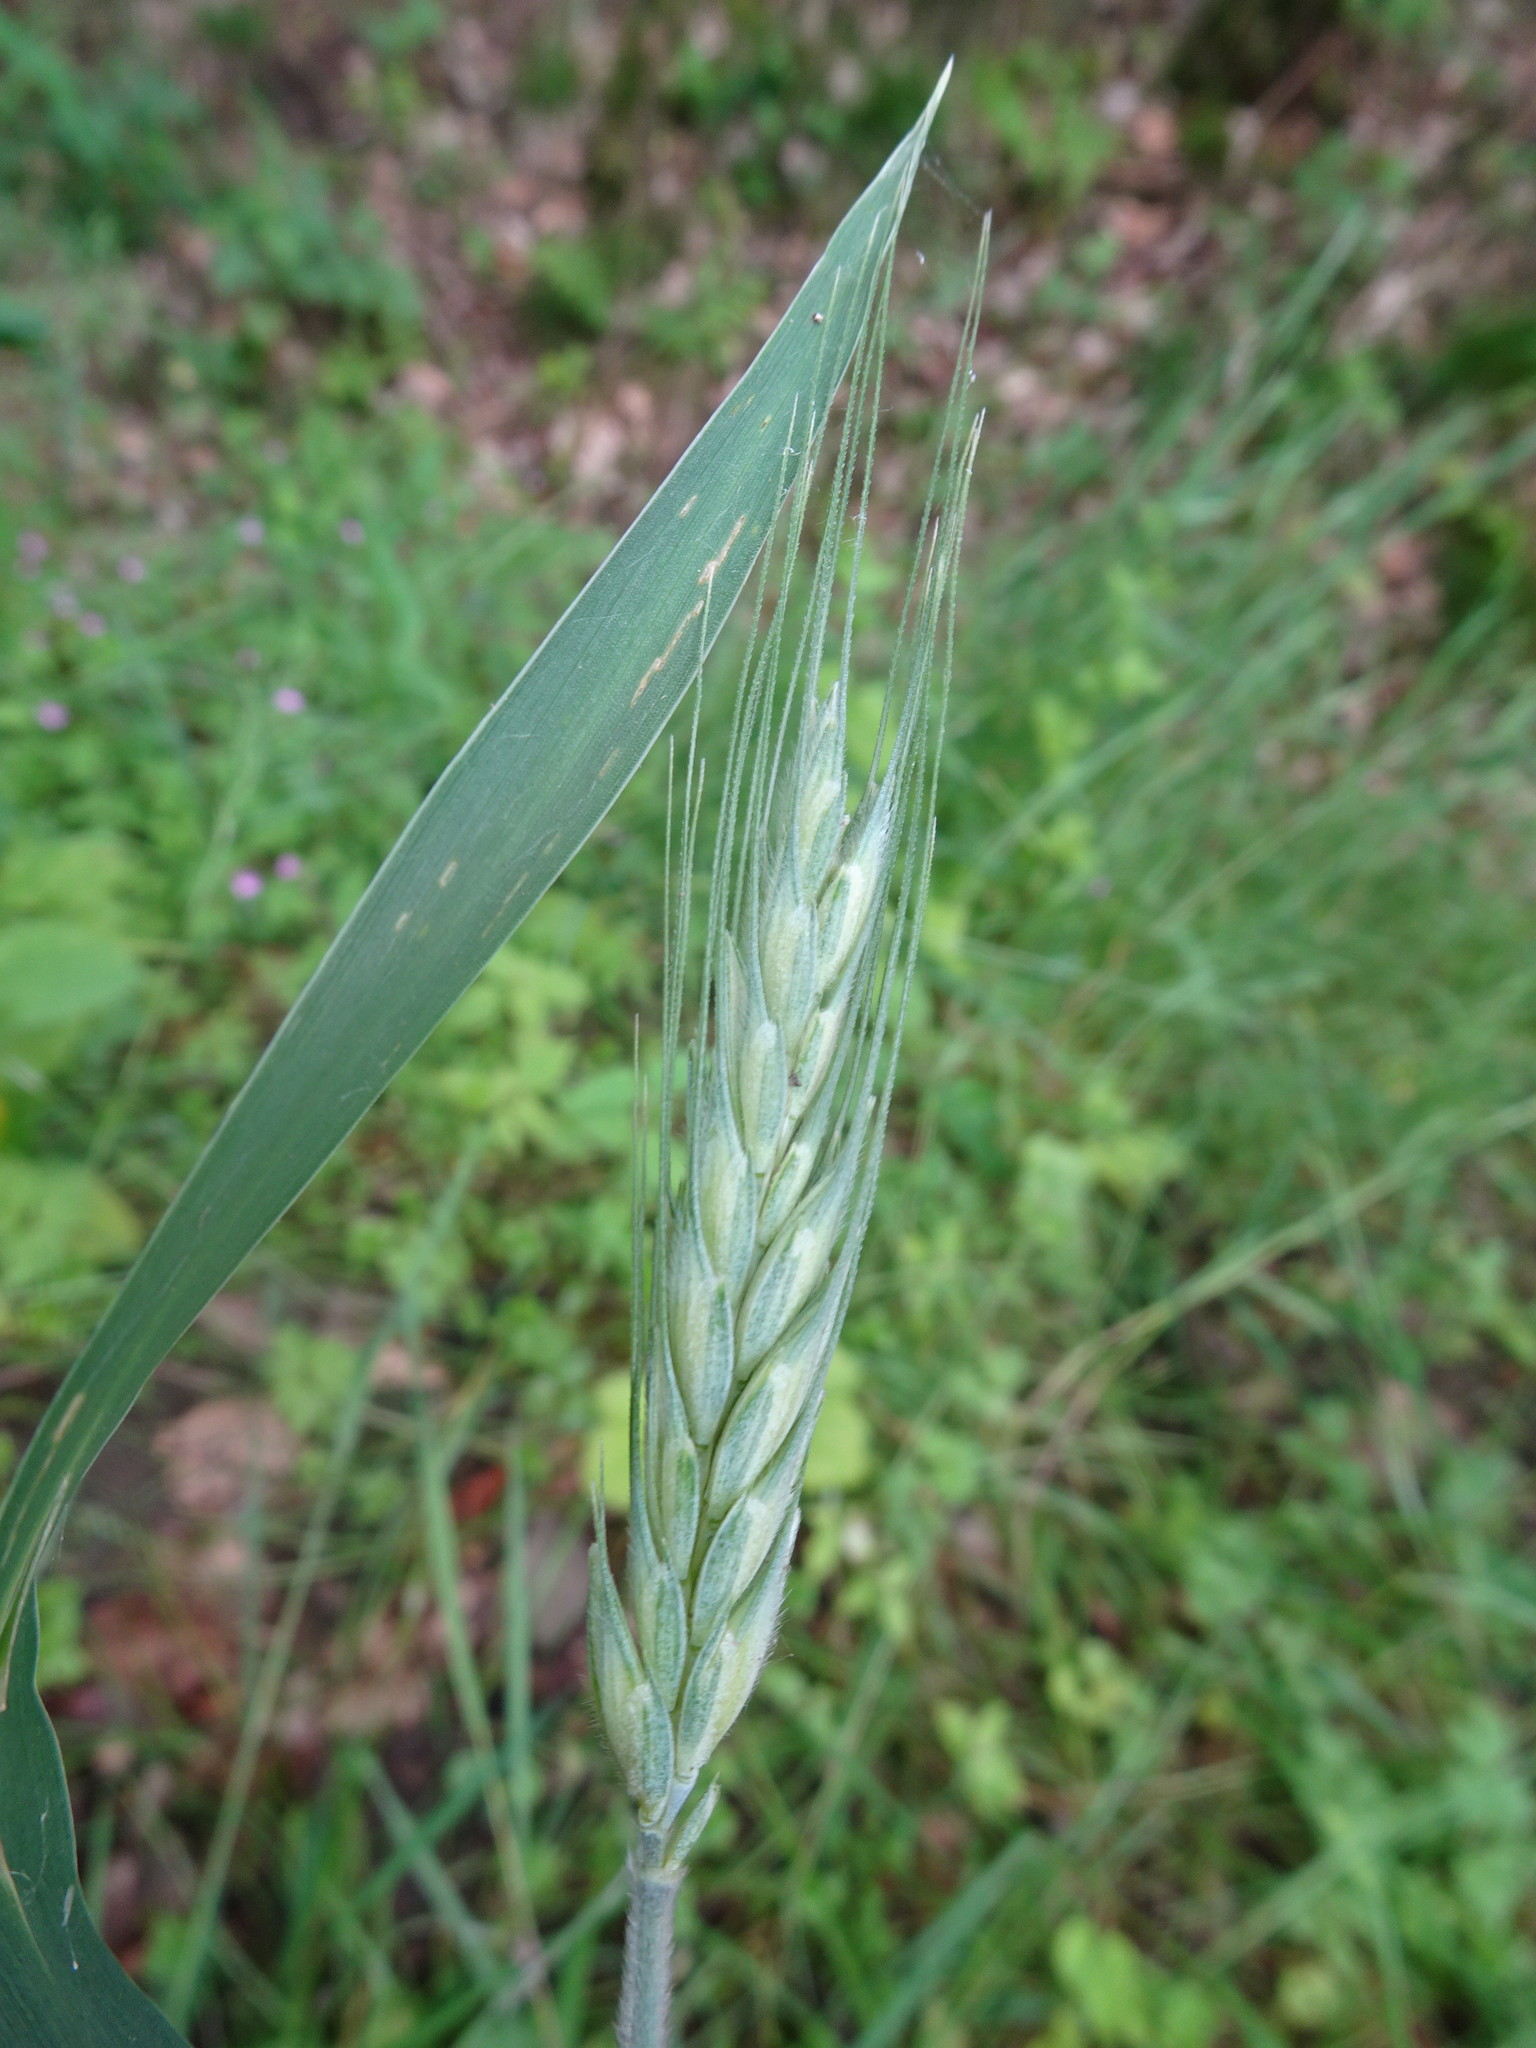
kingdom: Plantae
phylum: Tracheophyta
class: Liliopsida
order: Poales
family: Poaceae
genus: Triticum
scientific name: Triticum aestivum
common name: Common wheat
